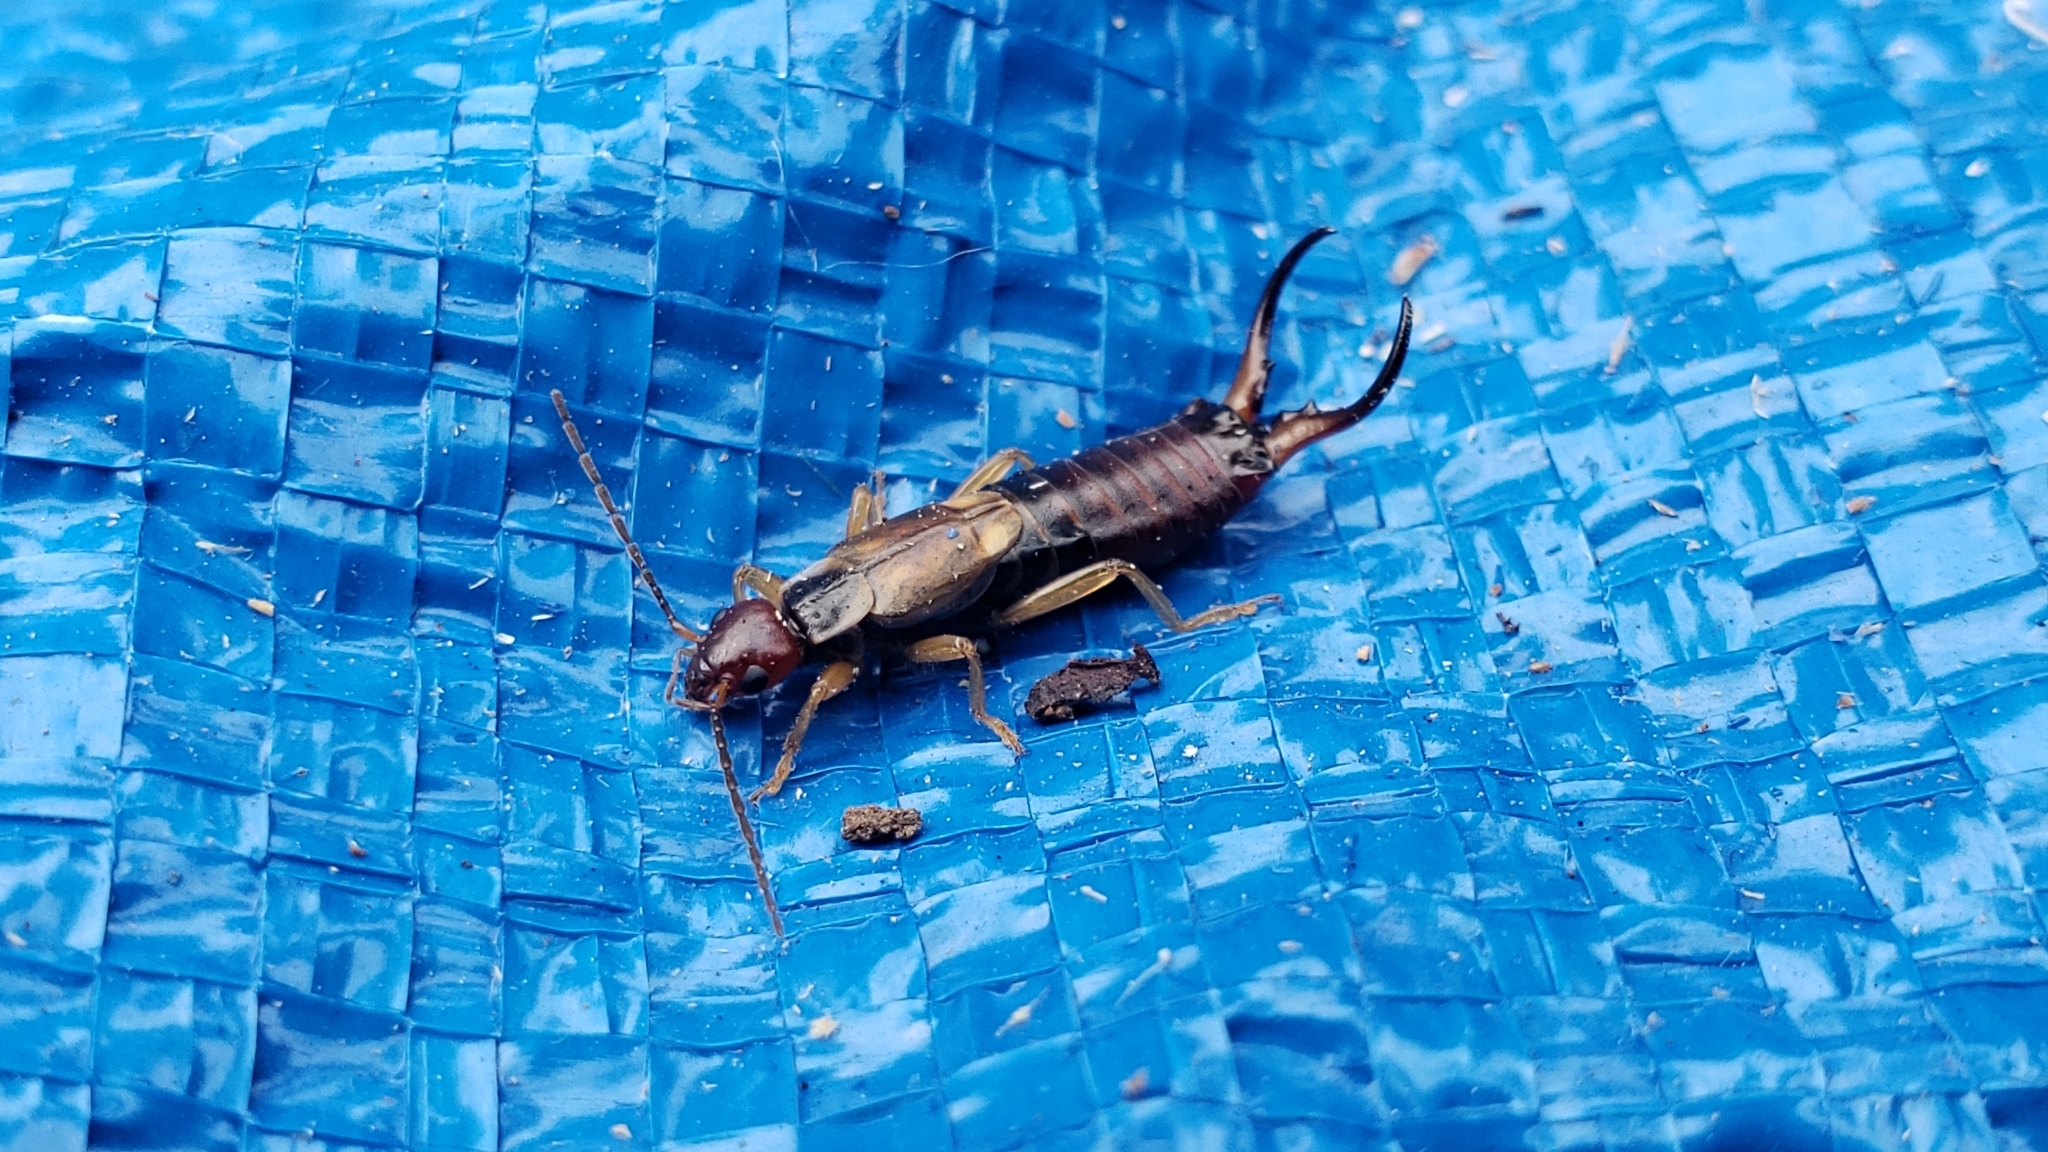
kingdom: Animalia
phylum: Arthropoda
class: Insecta
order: Dermaptera
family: Forficulidae
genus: Forficula
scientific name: Forficula
